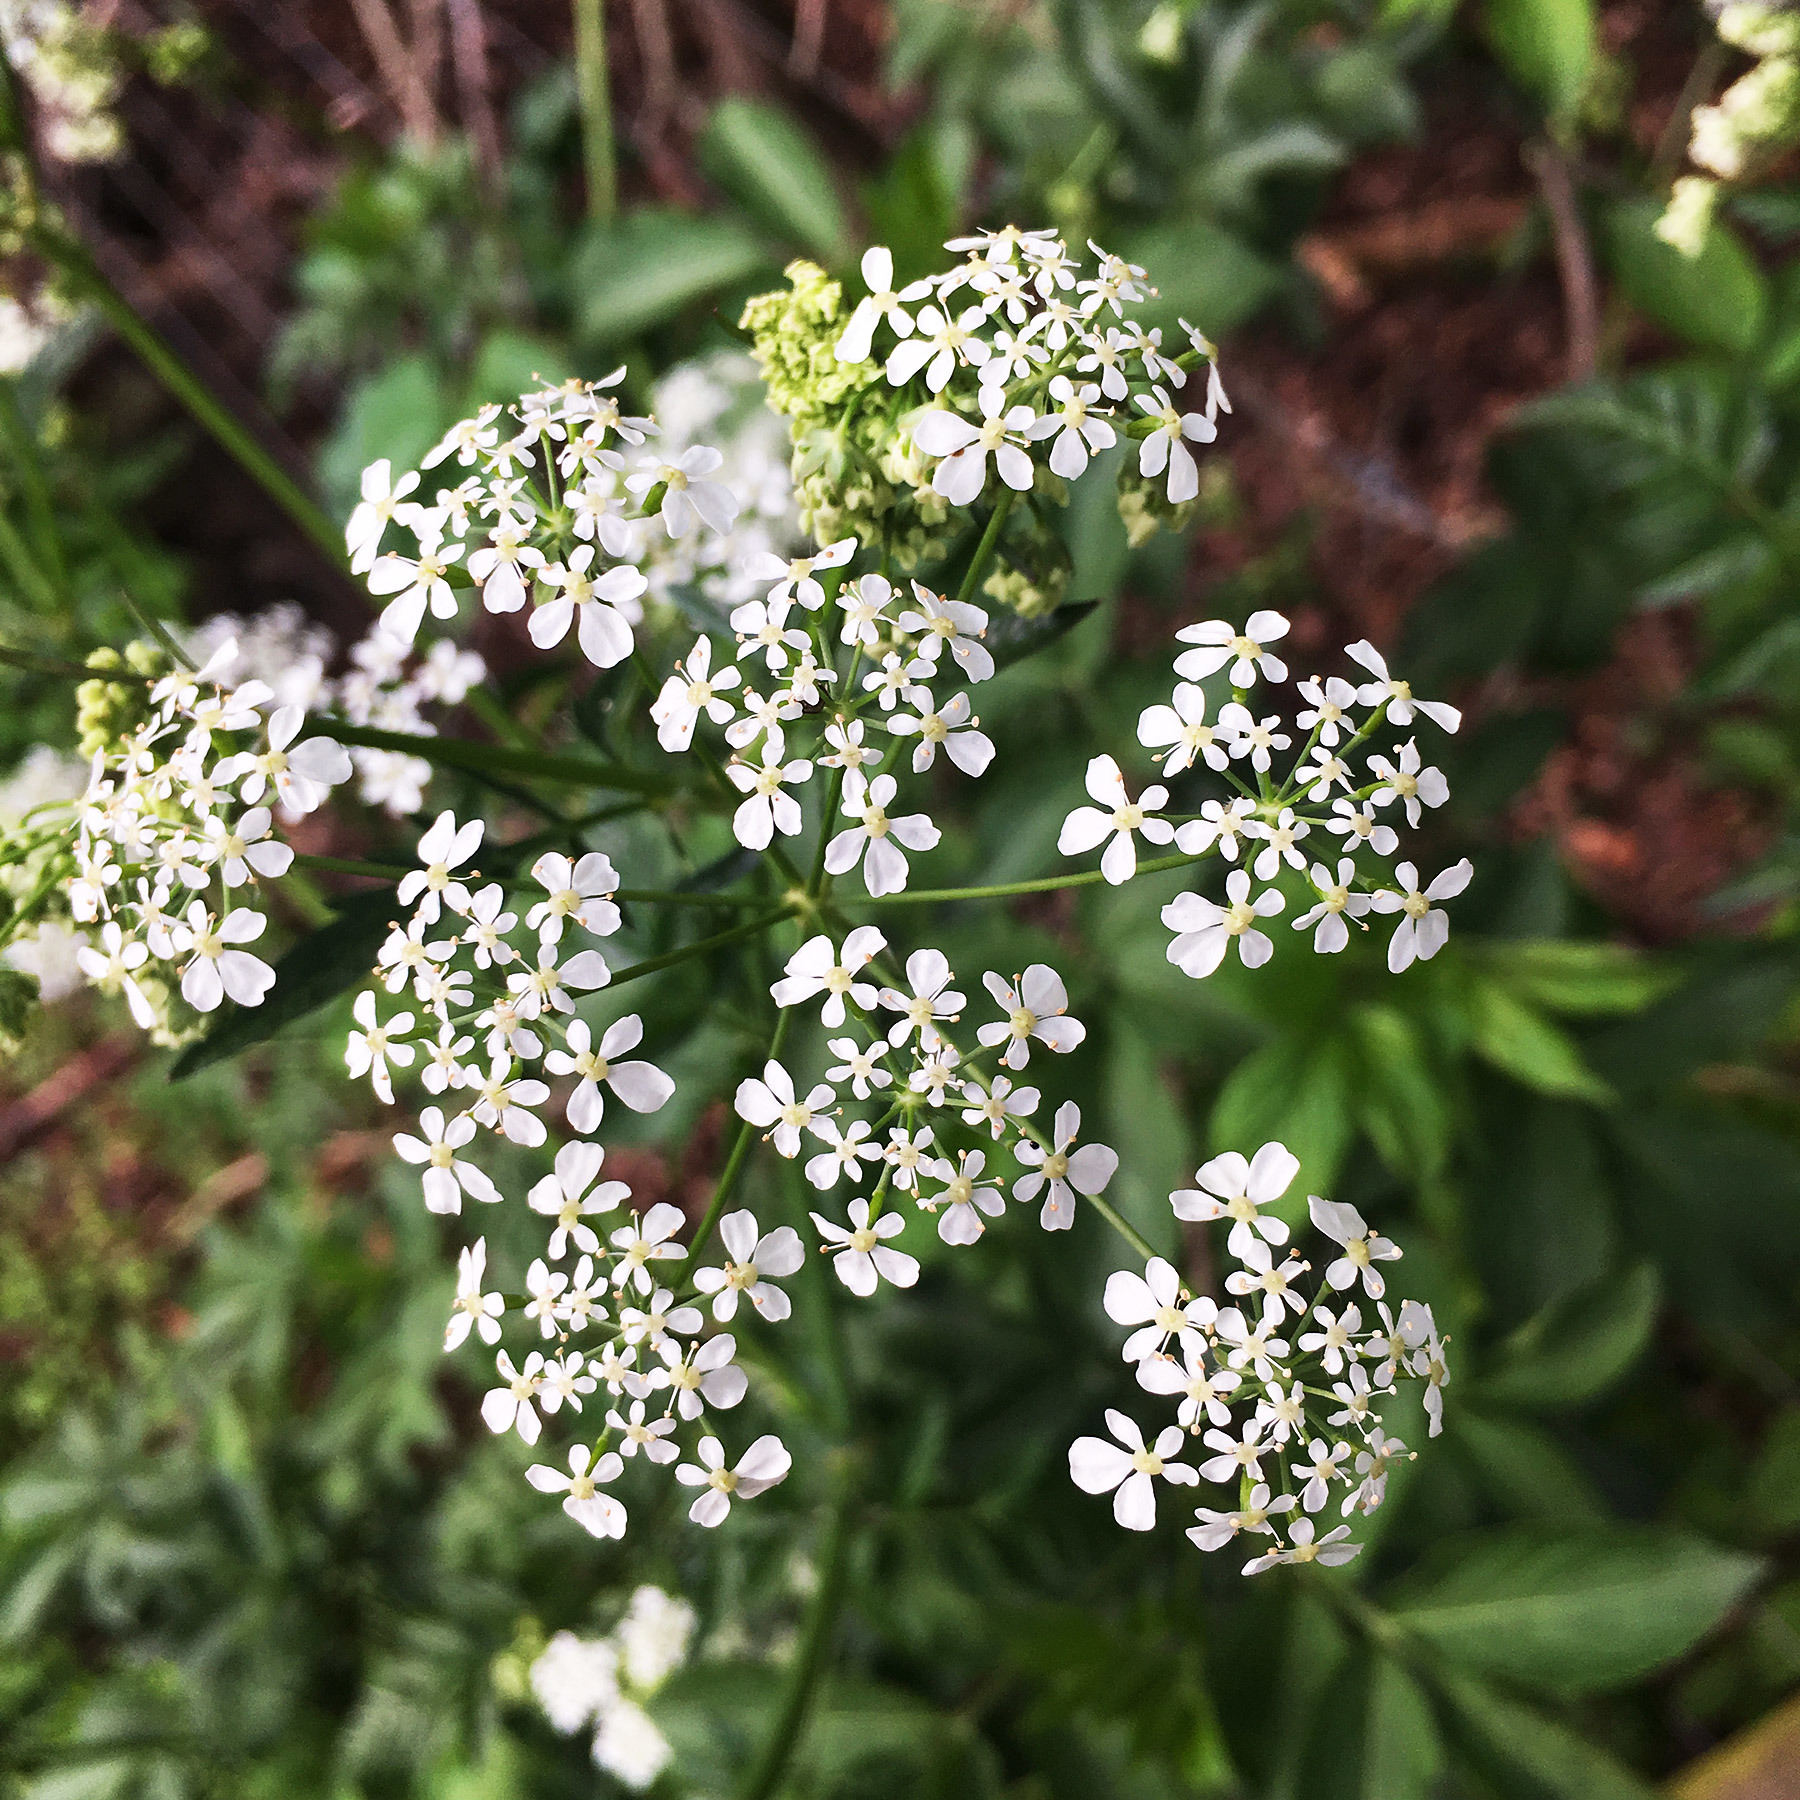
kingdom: Plantae
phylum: Tracheophyta
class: Magnoliopsida
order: Apiales
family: Apiaceae
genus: Anthriscus
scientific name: Anthriscus sylvestris
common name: Cow parsley
